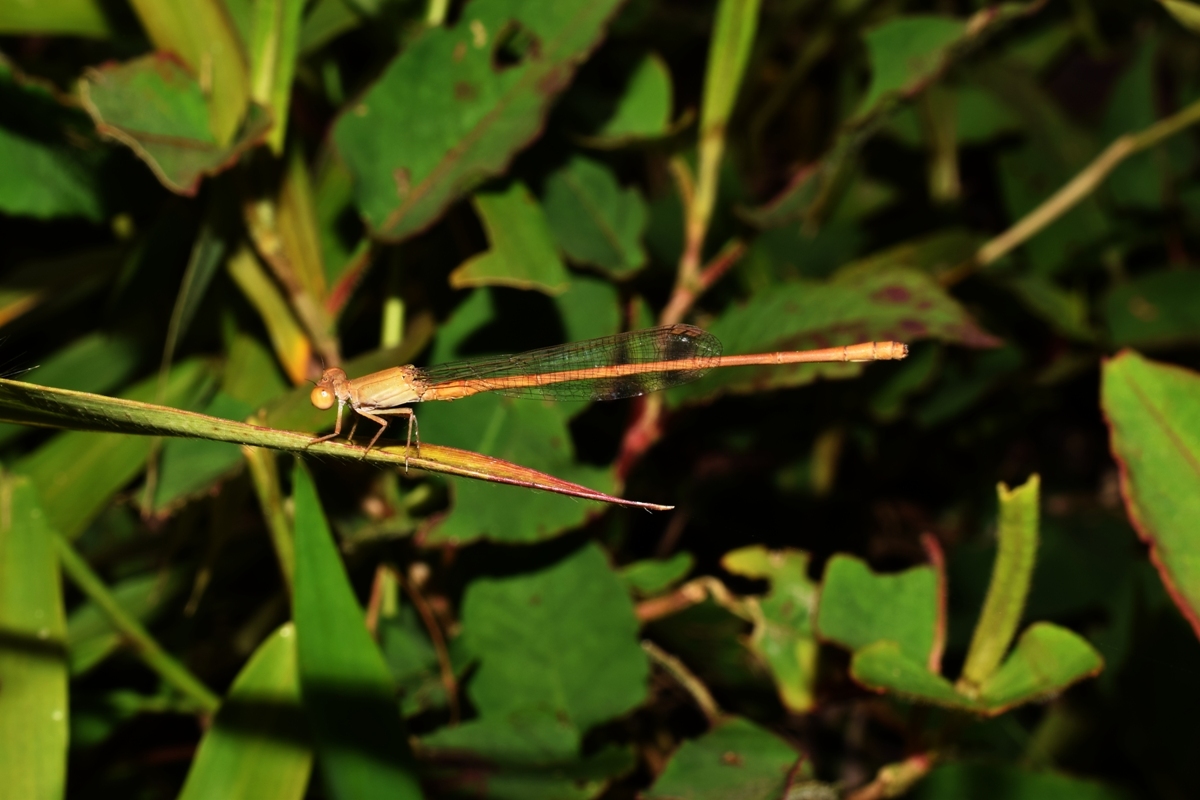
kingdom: Animalia
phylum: Arthropoda
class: Insecta
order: Odonata
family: Coenagrionidae
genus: Ceriagrion
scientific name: Ceriagrion olivaceum
